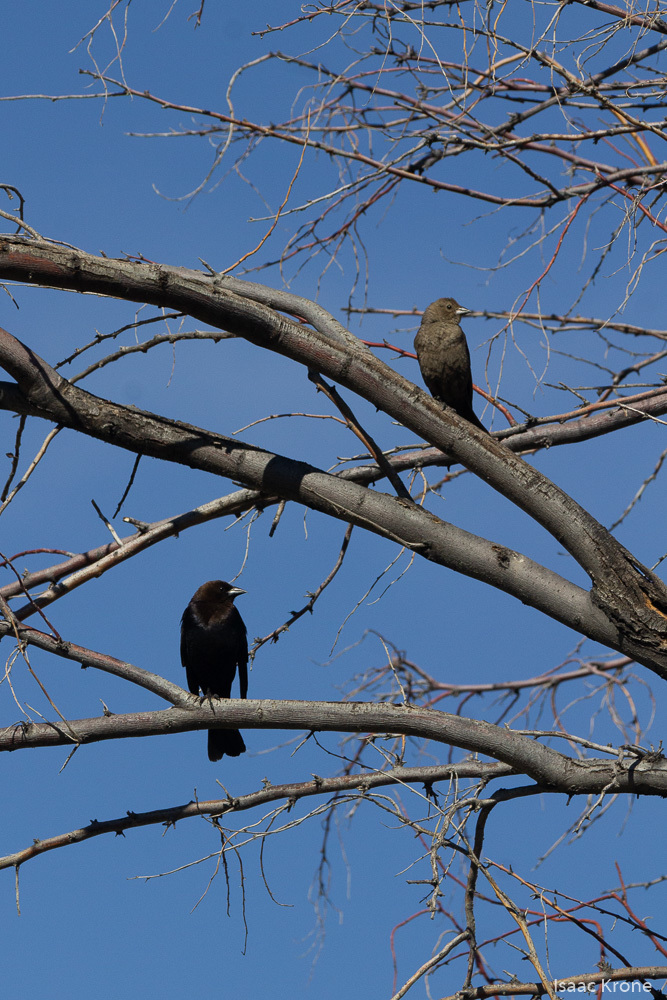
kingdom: Animalia
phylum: Chordata
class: Aves
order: Passeriformes
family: Icteridae
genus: Molothrus
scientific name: Molothrus ater
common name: Brown-headed cowbird
